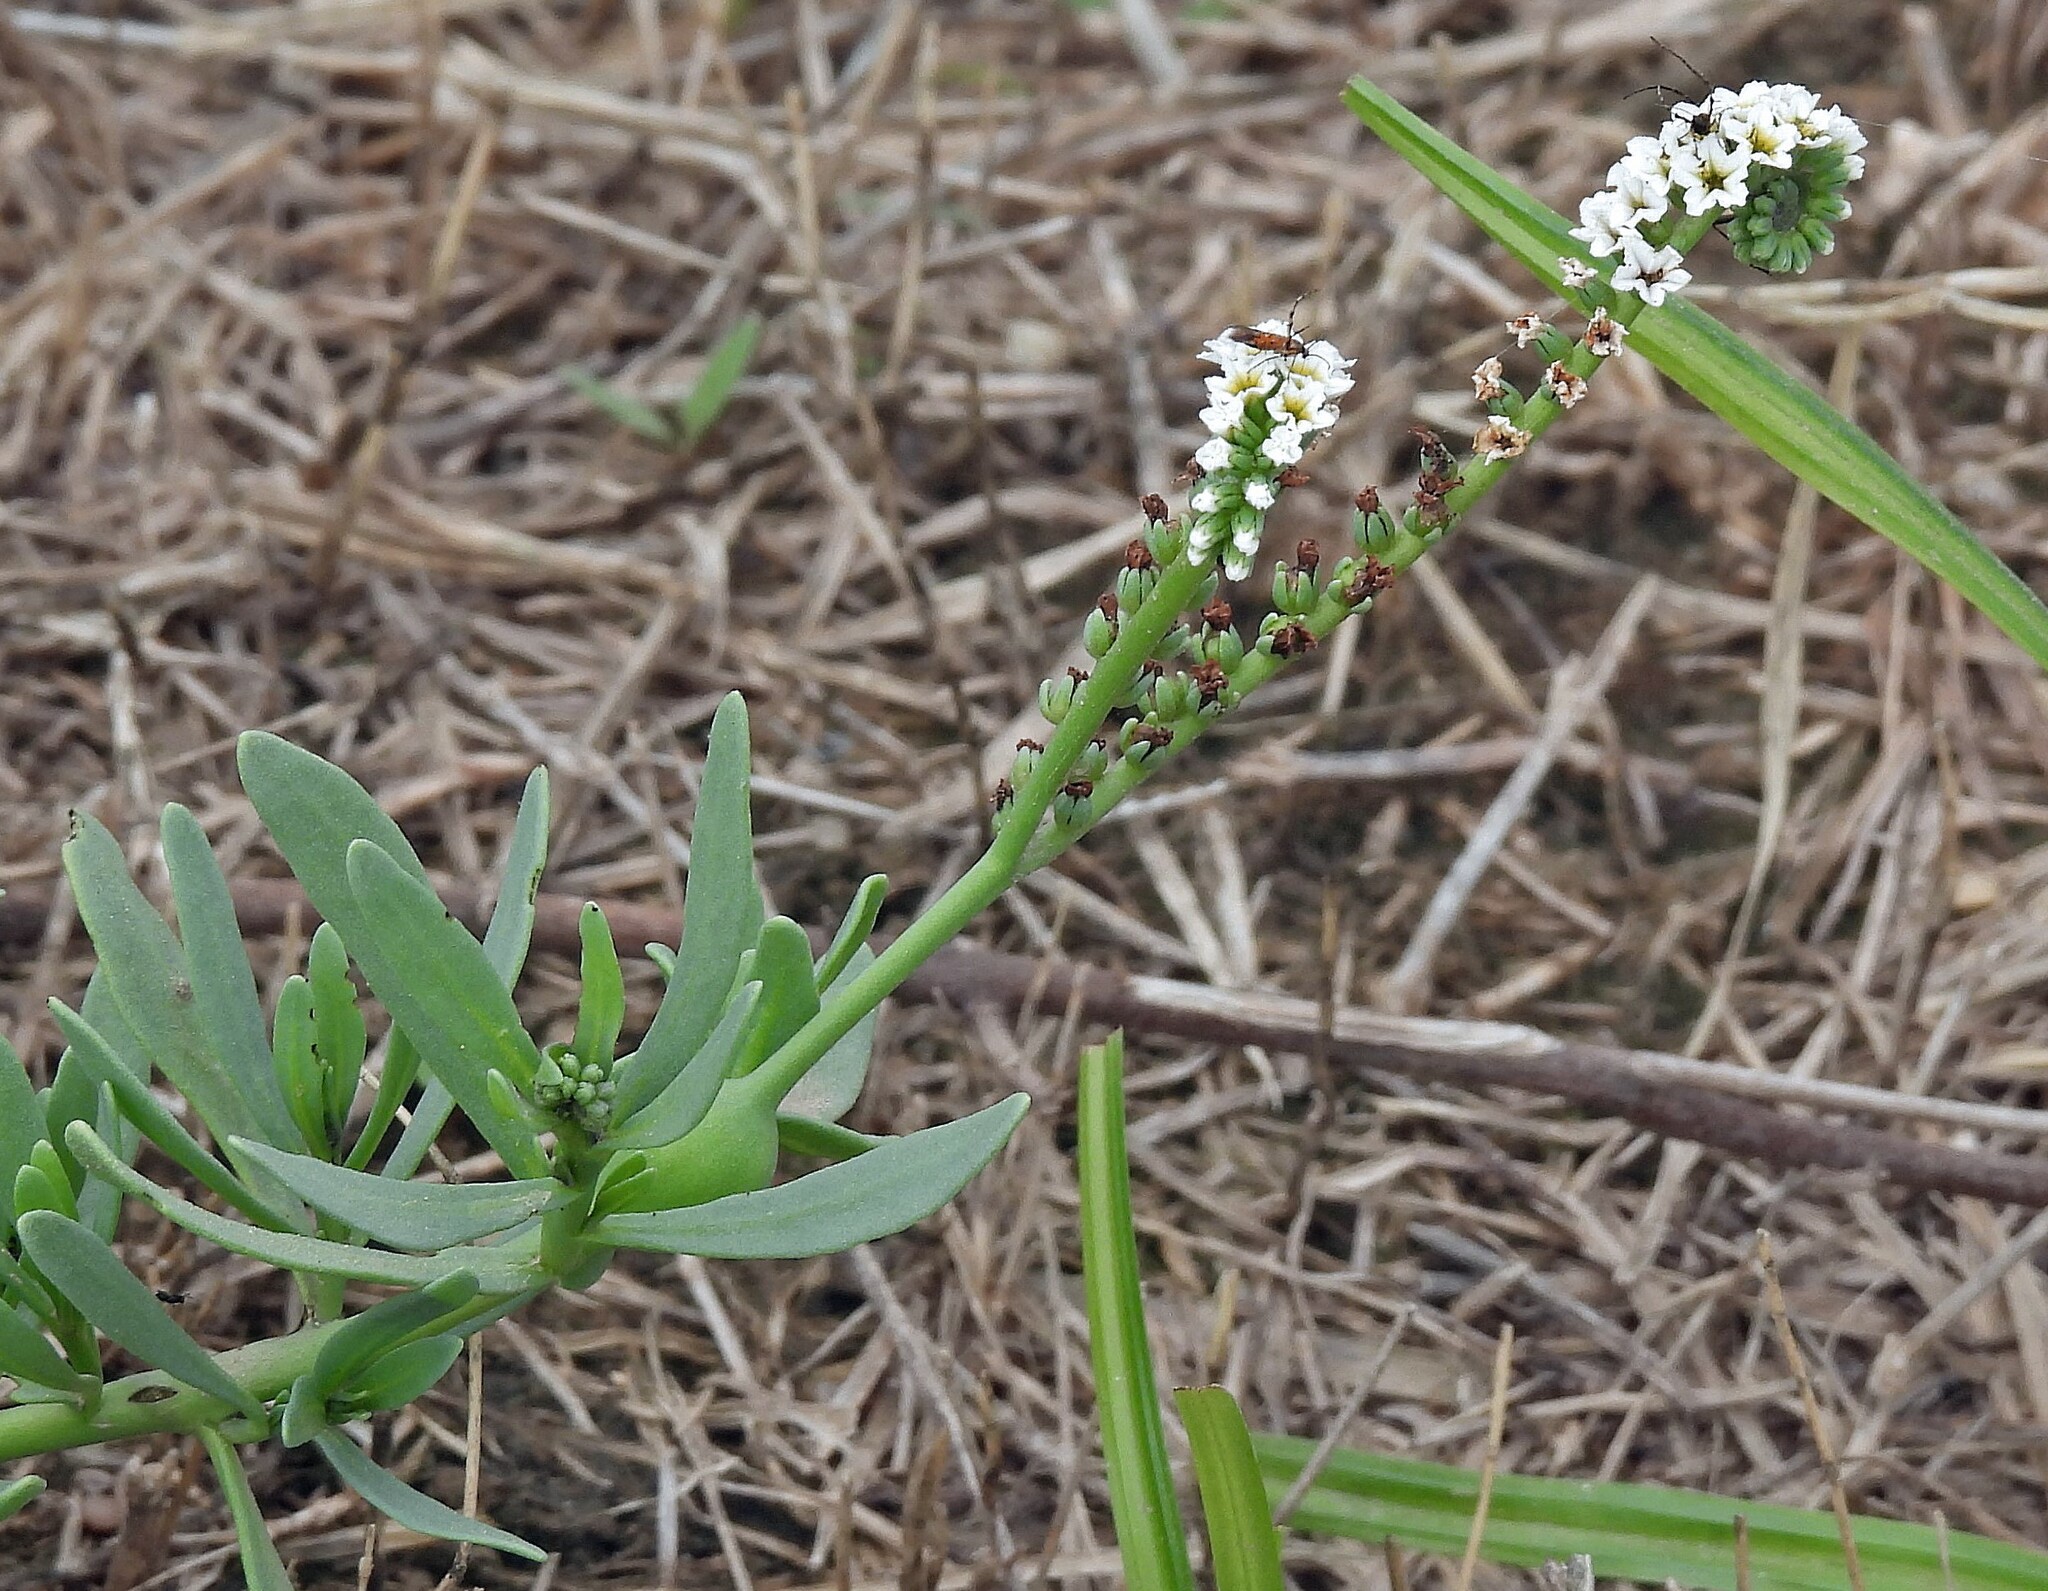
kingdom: Plantae
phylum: Tracheophyta
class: Magnoliopsida
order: Boraginales
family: Heliotropiaceae
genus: Heliotropium
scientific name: Heliotropium curassavicum
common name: Seaside heliotrope
